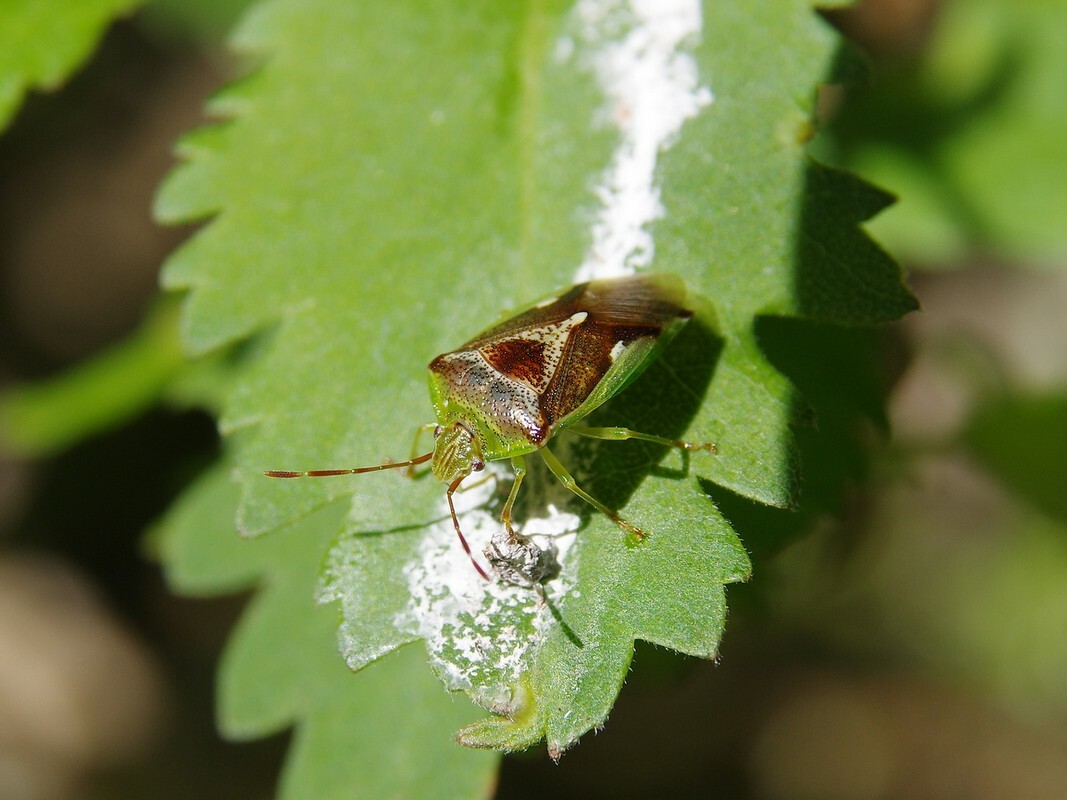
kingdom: Animalia
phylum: Arthropoda
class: Insecta
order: Hemiptera
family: Acanthosomatidae
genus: Oncacontias
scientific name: Oncacontias vittatus
